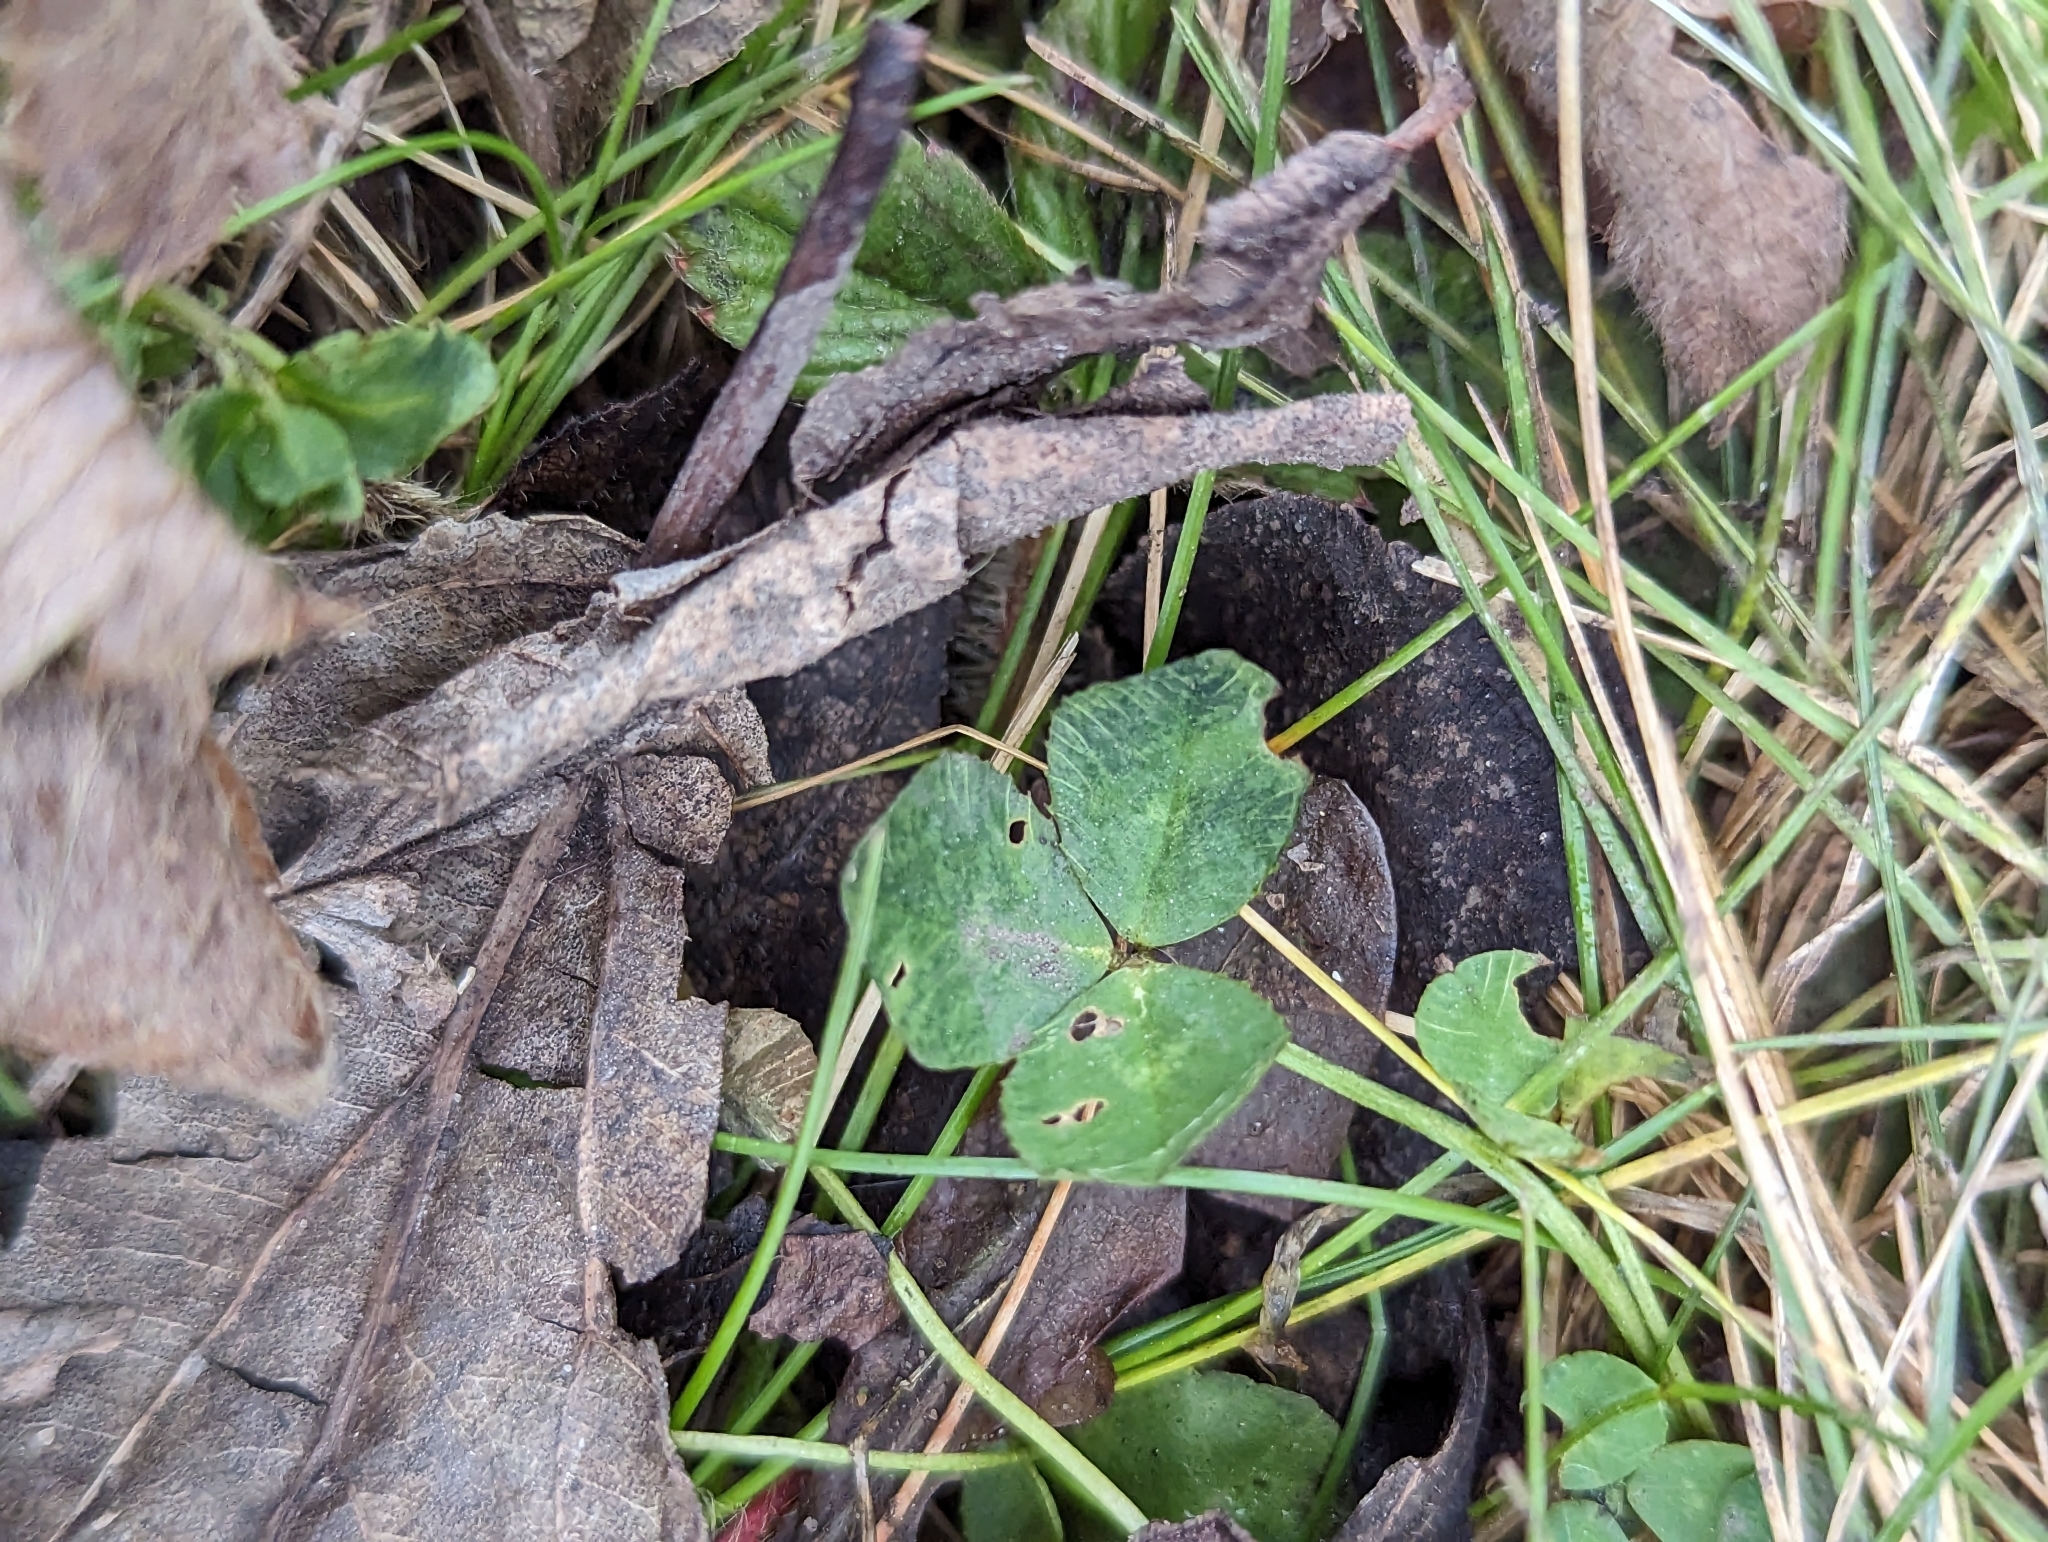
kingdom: Plantae
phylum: Tracheophyta
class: Magnoliopsida
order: Fabales
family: Fabaceae
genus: Trifolium
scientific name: Trifolium repens
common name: White clover
